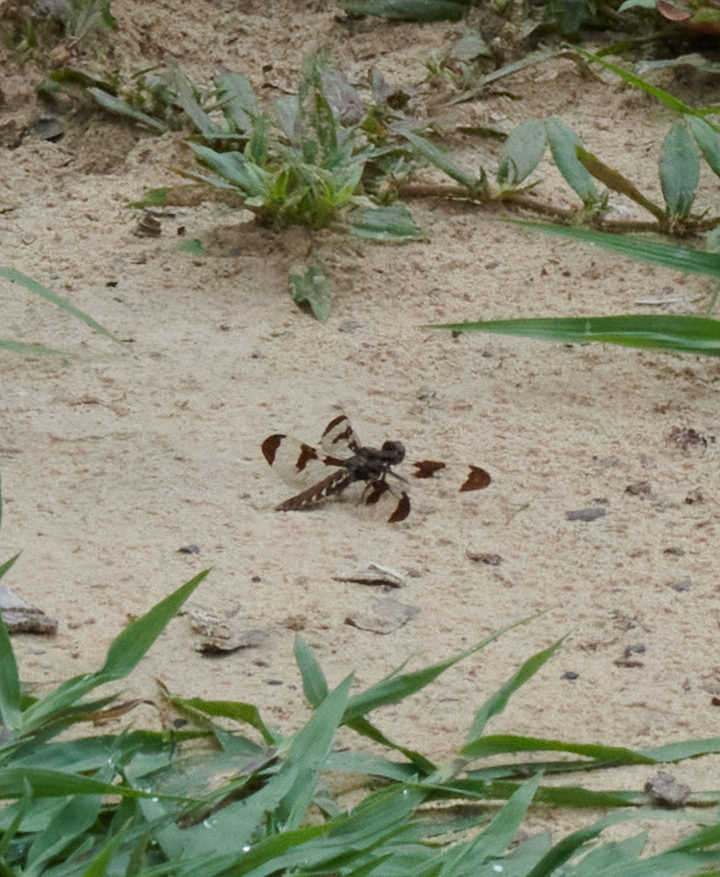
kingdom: Animalia
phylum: Arthropoda
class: Insecta
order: Odonata
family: Libellulidae
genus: Plathemis
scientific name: Plathemis lydia
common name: Common whitetail
